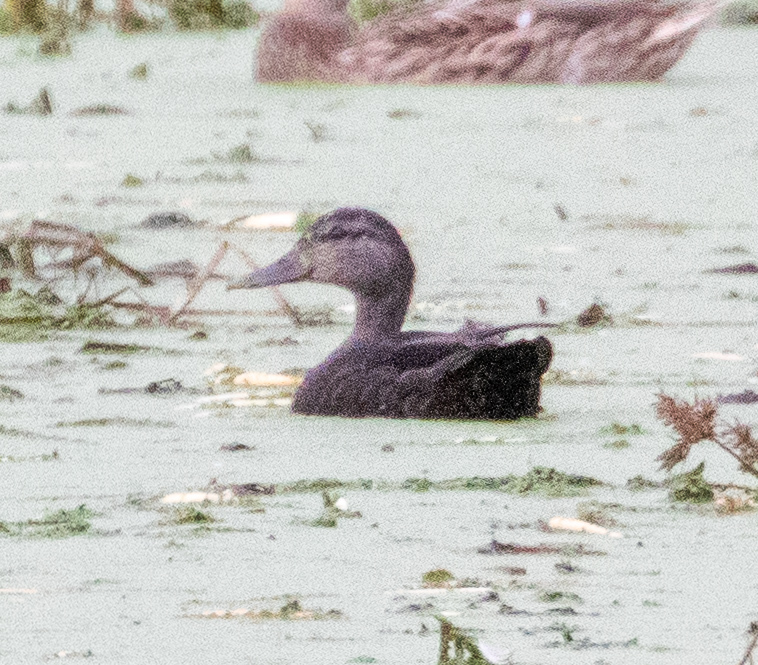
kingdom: Animalia
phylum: Chordata
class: Aves
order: Anseriformes
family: Anatidae
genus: Anas
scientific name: Anas rubripes
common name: American black duck
